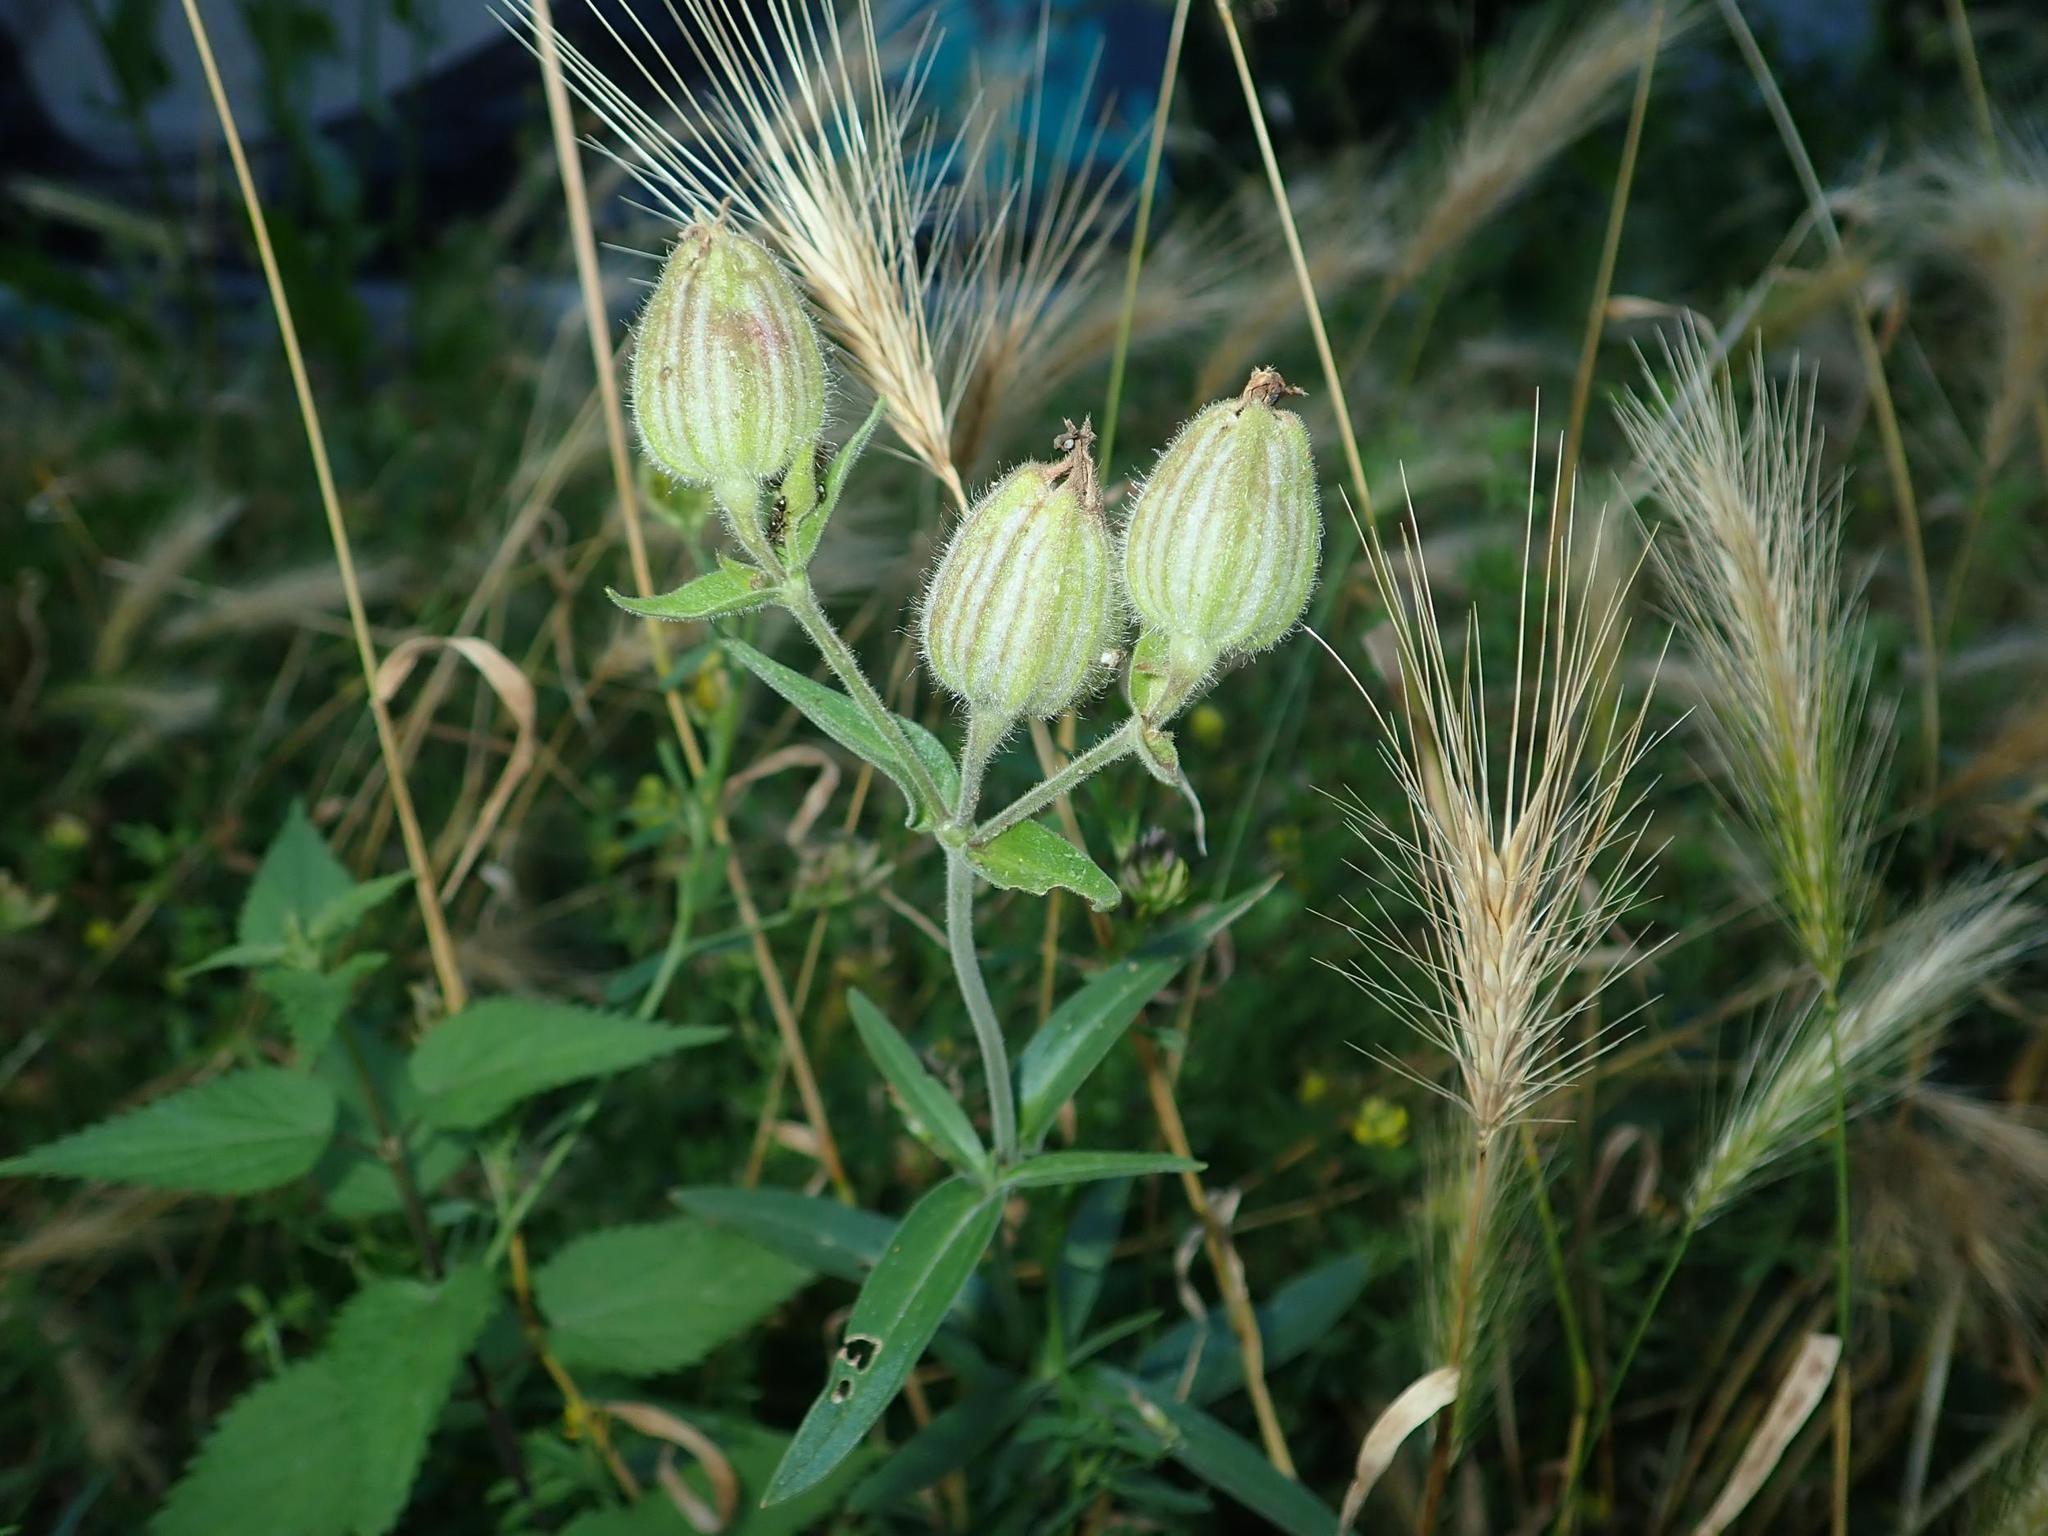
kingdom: Plantae
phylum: Tracheophyta
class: Magnoliopsida
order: Caryophyllales
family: Caryophyllaceae
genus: Silene
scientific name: Silene latifolia
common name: White campion
